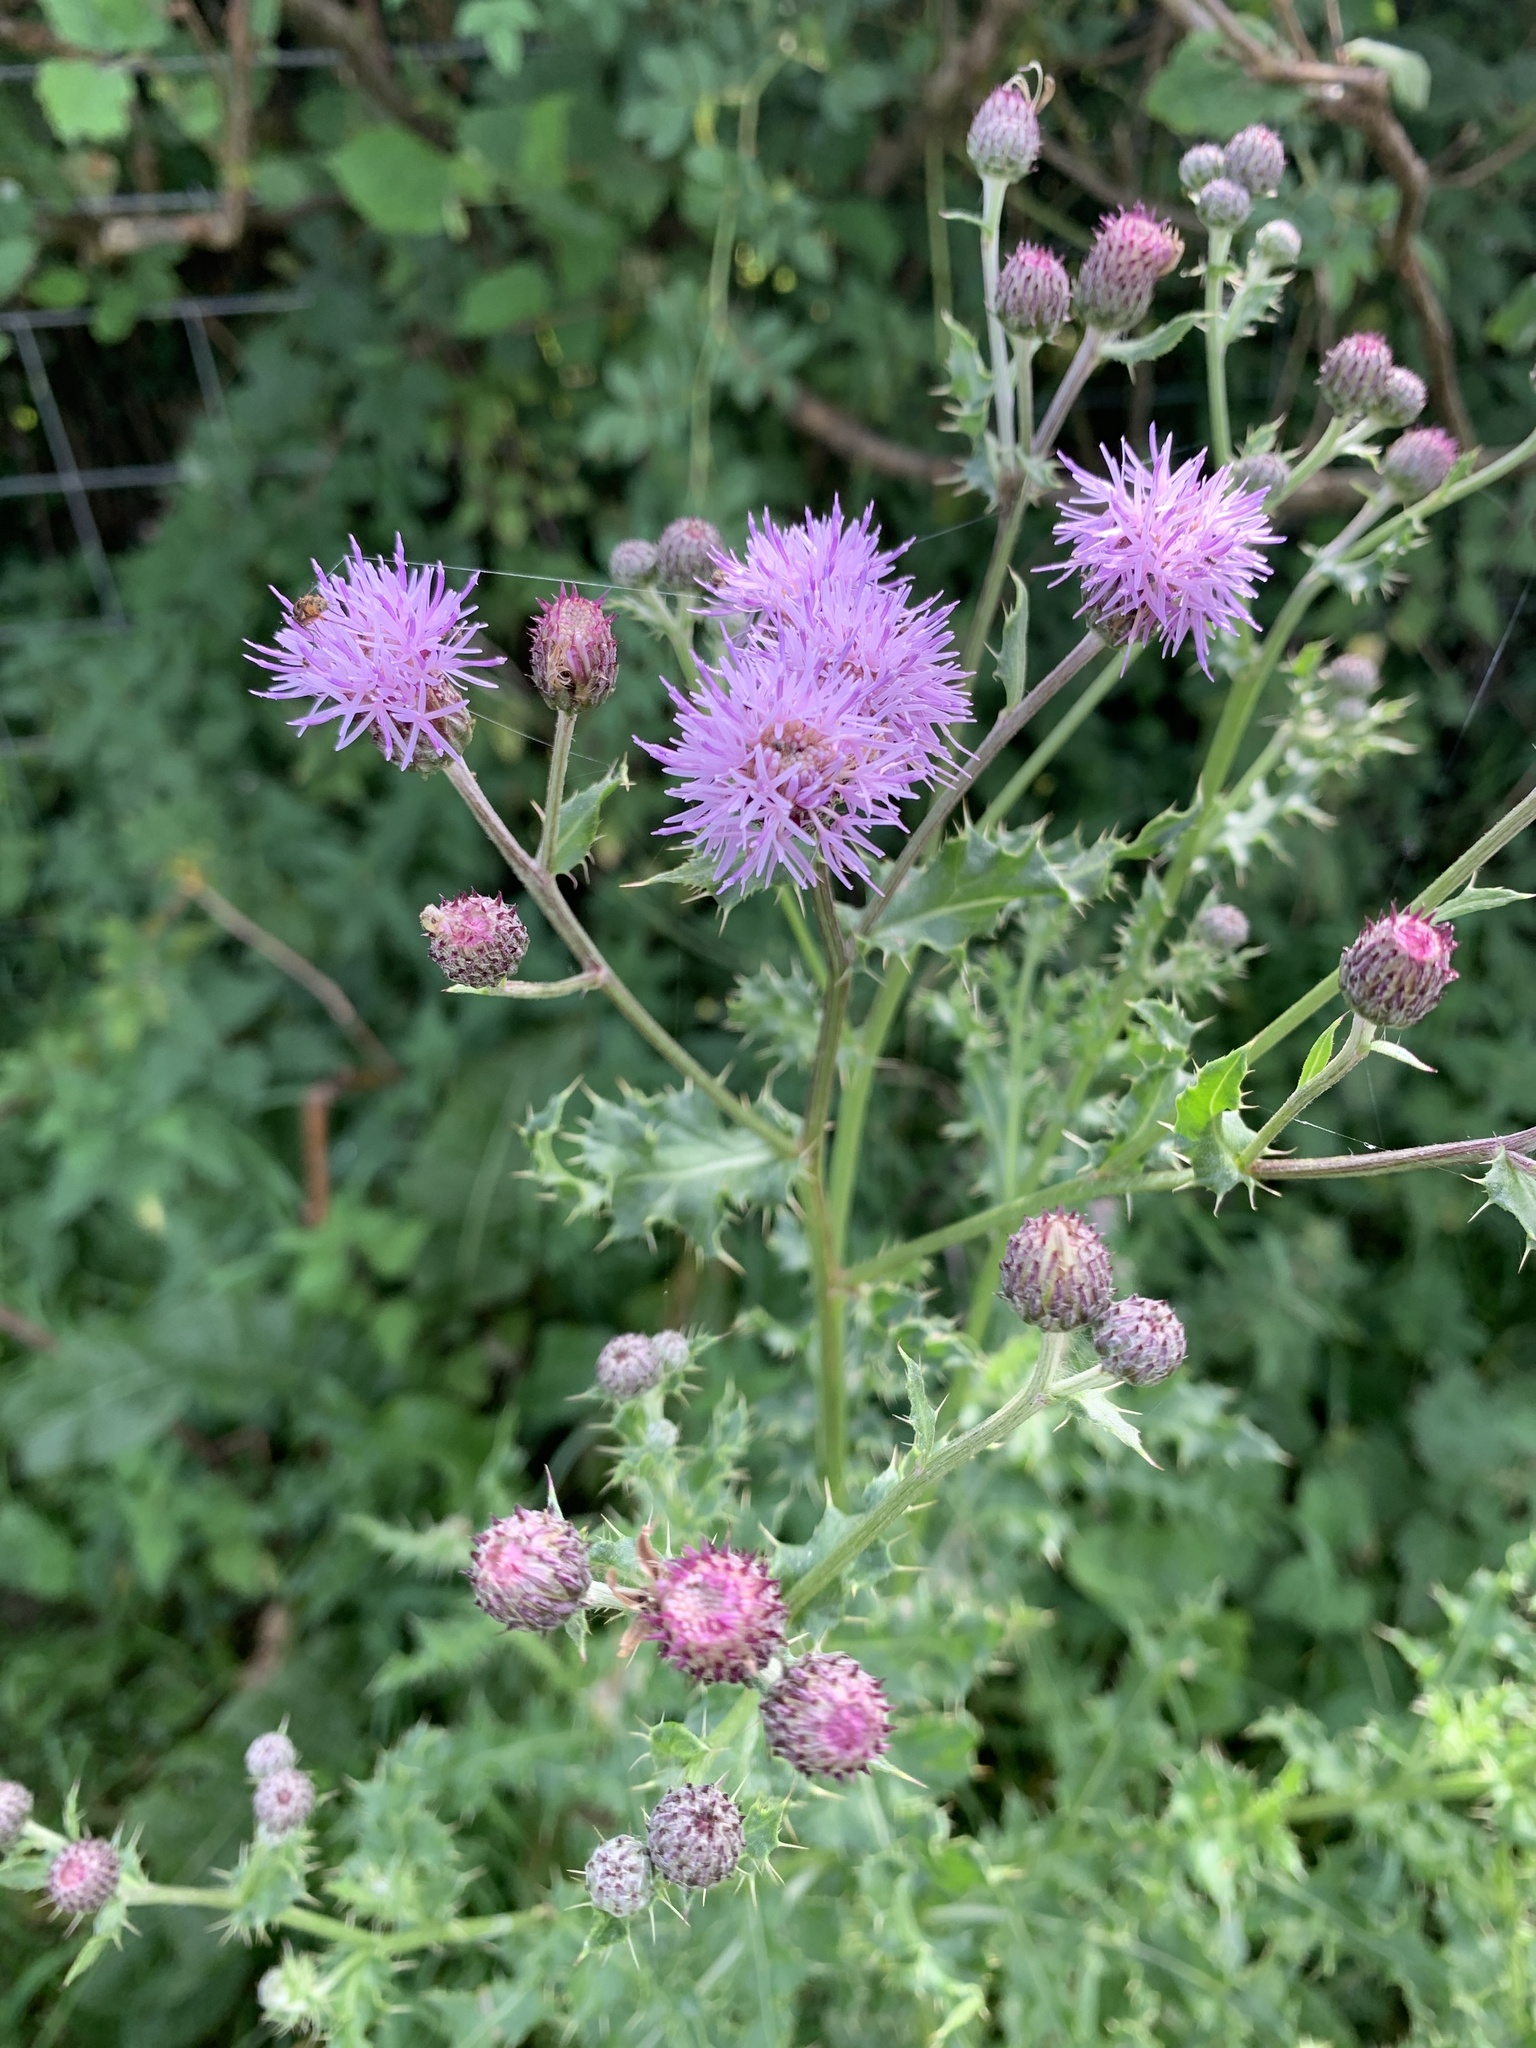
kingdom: Plantae
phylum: Tracheophyta
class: Magnoliopsida
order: Asterales
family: Asteraceae
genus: Cirsium
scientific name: Cirsium arvense
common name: Creeping thistle
